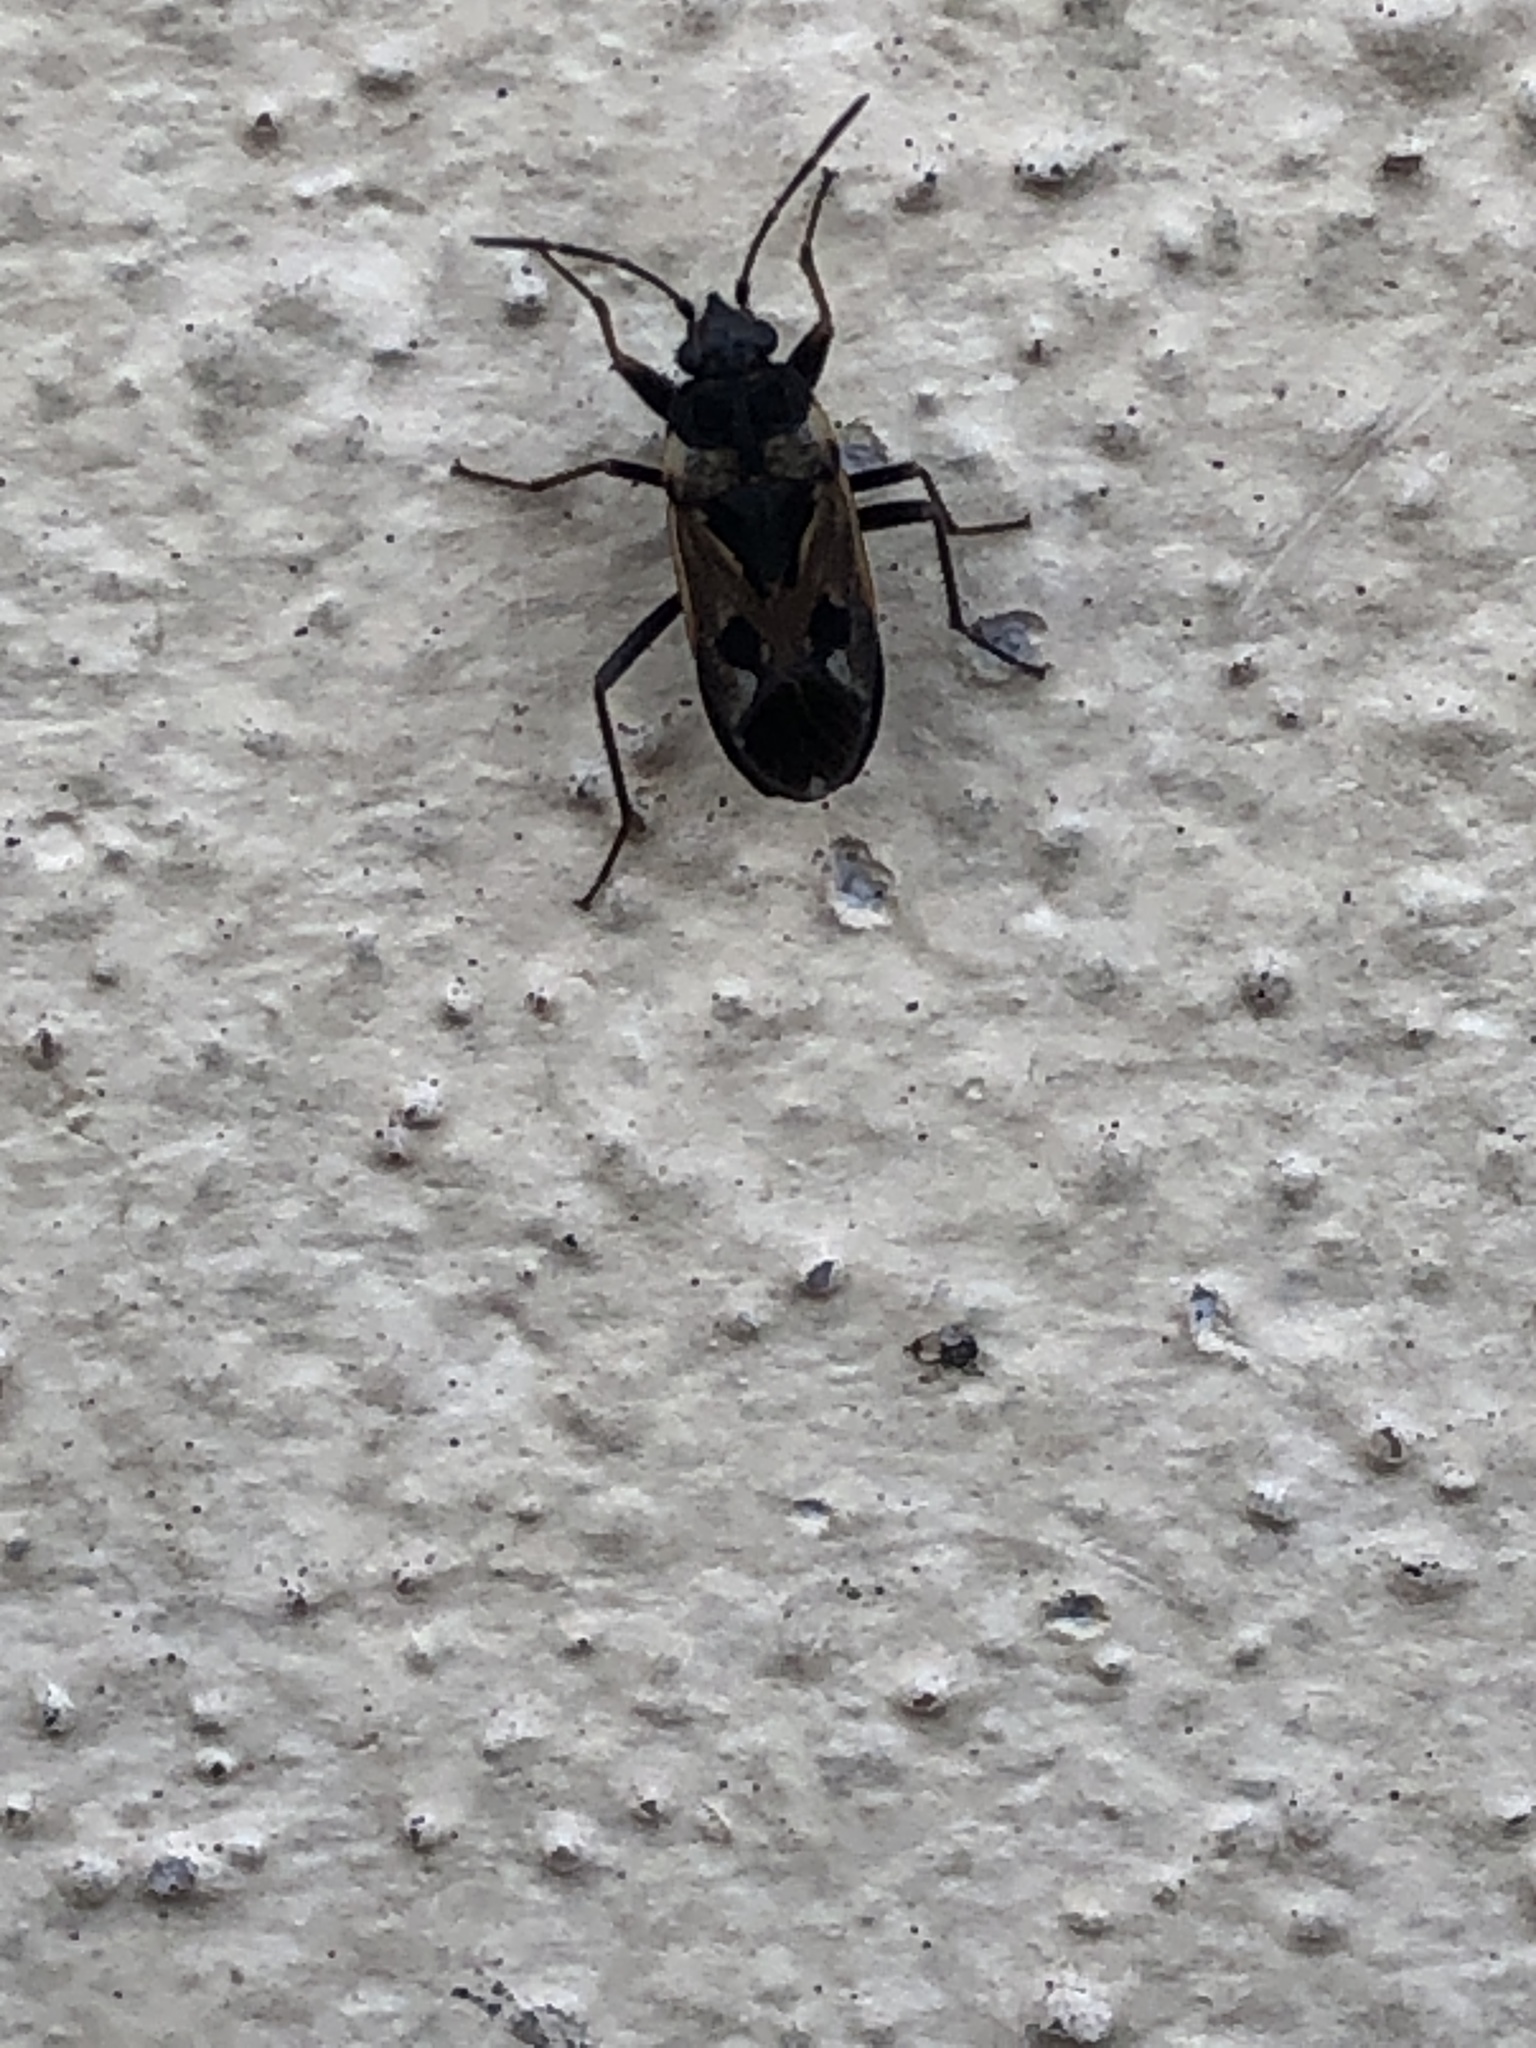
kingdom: Animalia
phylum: Arthropoda
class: Insecta
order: Hemiptera
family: Rhyparochromidae
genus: Rhyparochromus
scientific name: Rhyparochromus vulgaris
